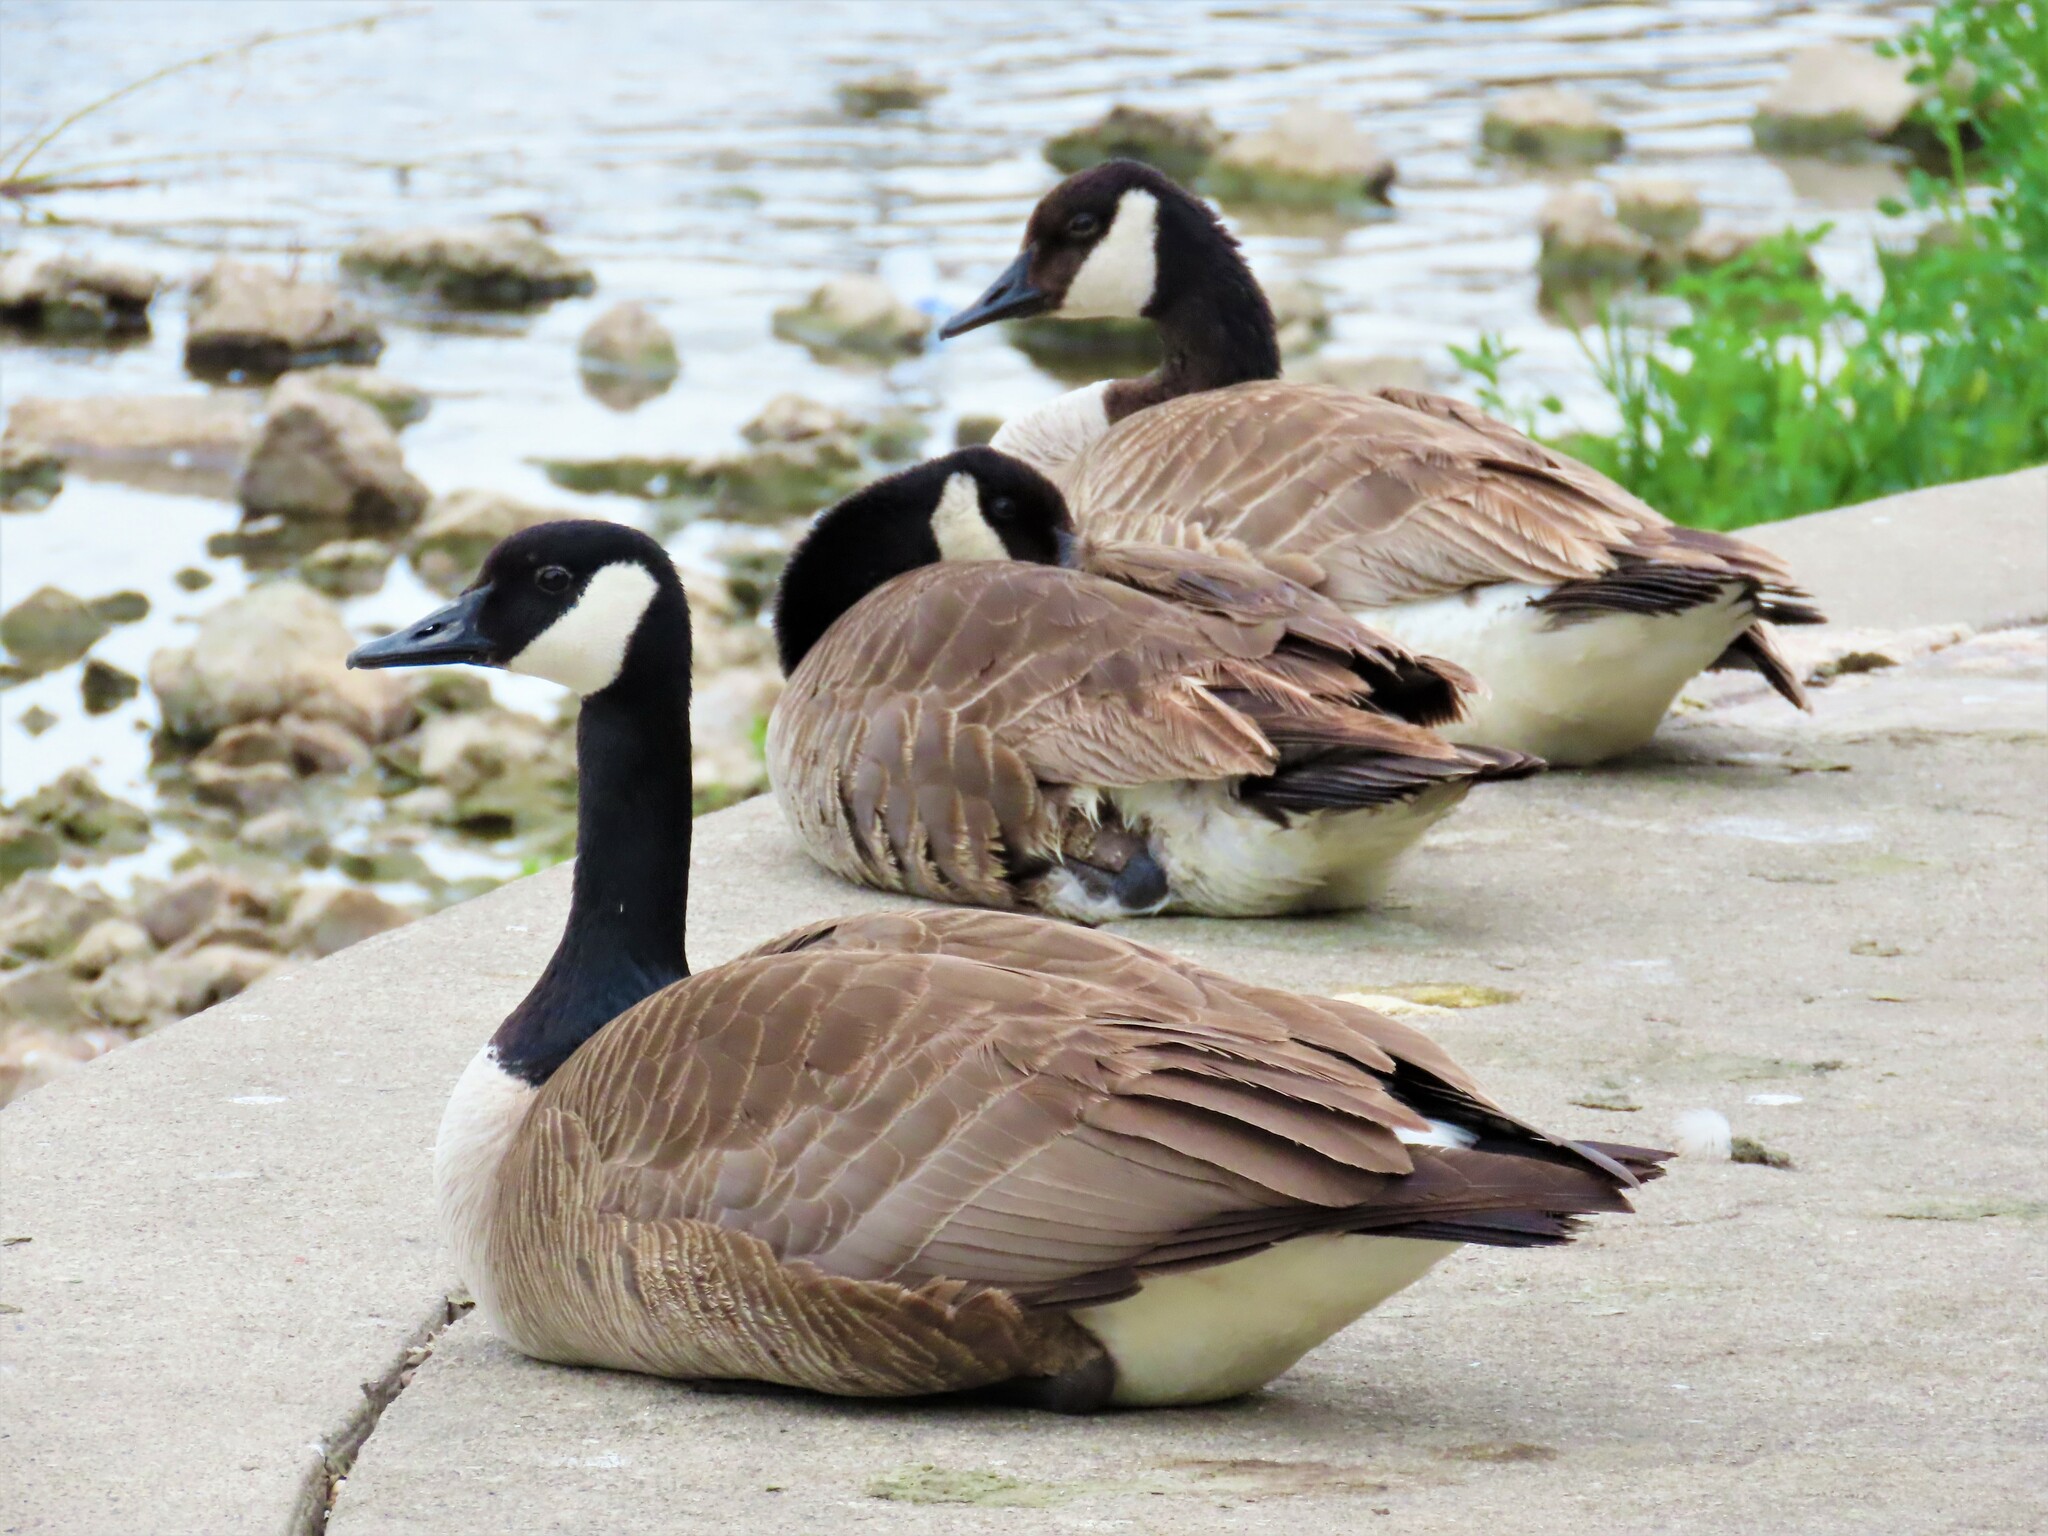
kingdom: Animalia
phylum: Chordata
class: Aves
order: Anseriformes
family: Anatidae
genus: Branta
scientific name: Branta canadensis
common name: Canada goose
